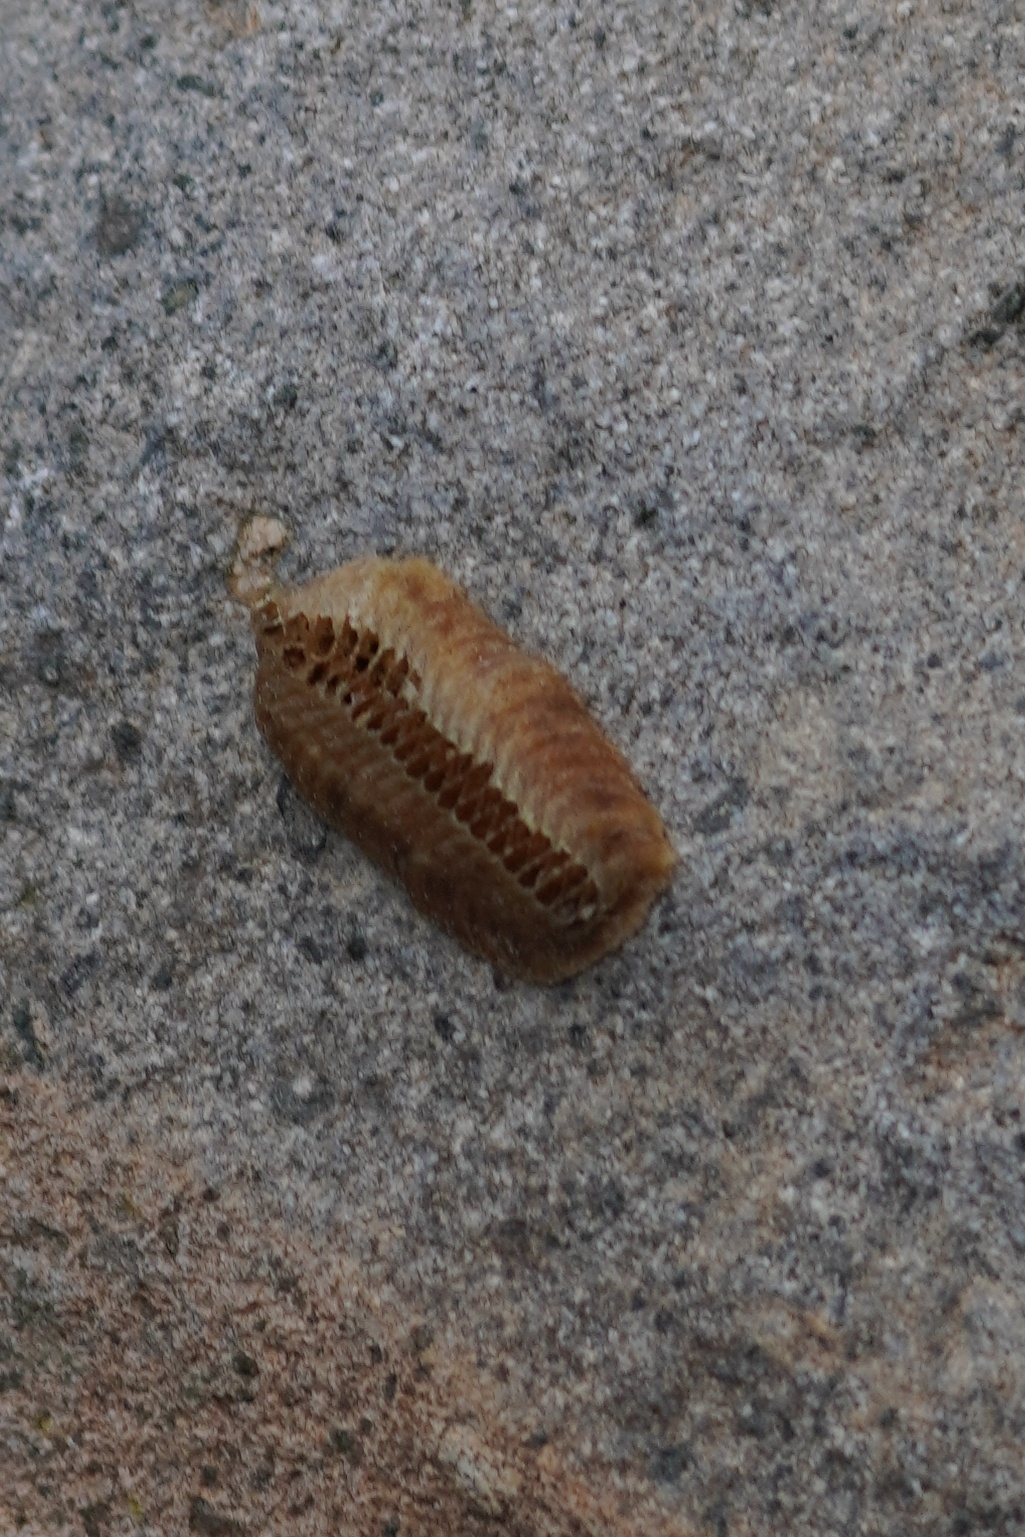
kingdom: Animalia
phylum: Arthropoda
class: Insecta
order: Mantodea
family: Eremiaphilidae
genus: Iris
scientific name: Iris oratoria
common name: Mediterranean mantis
